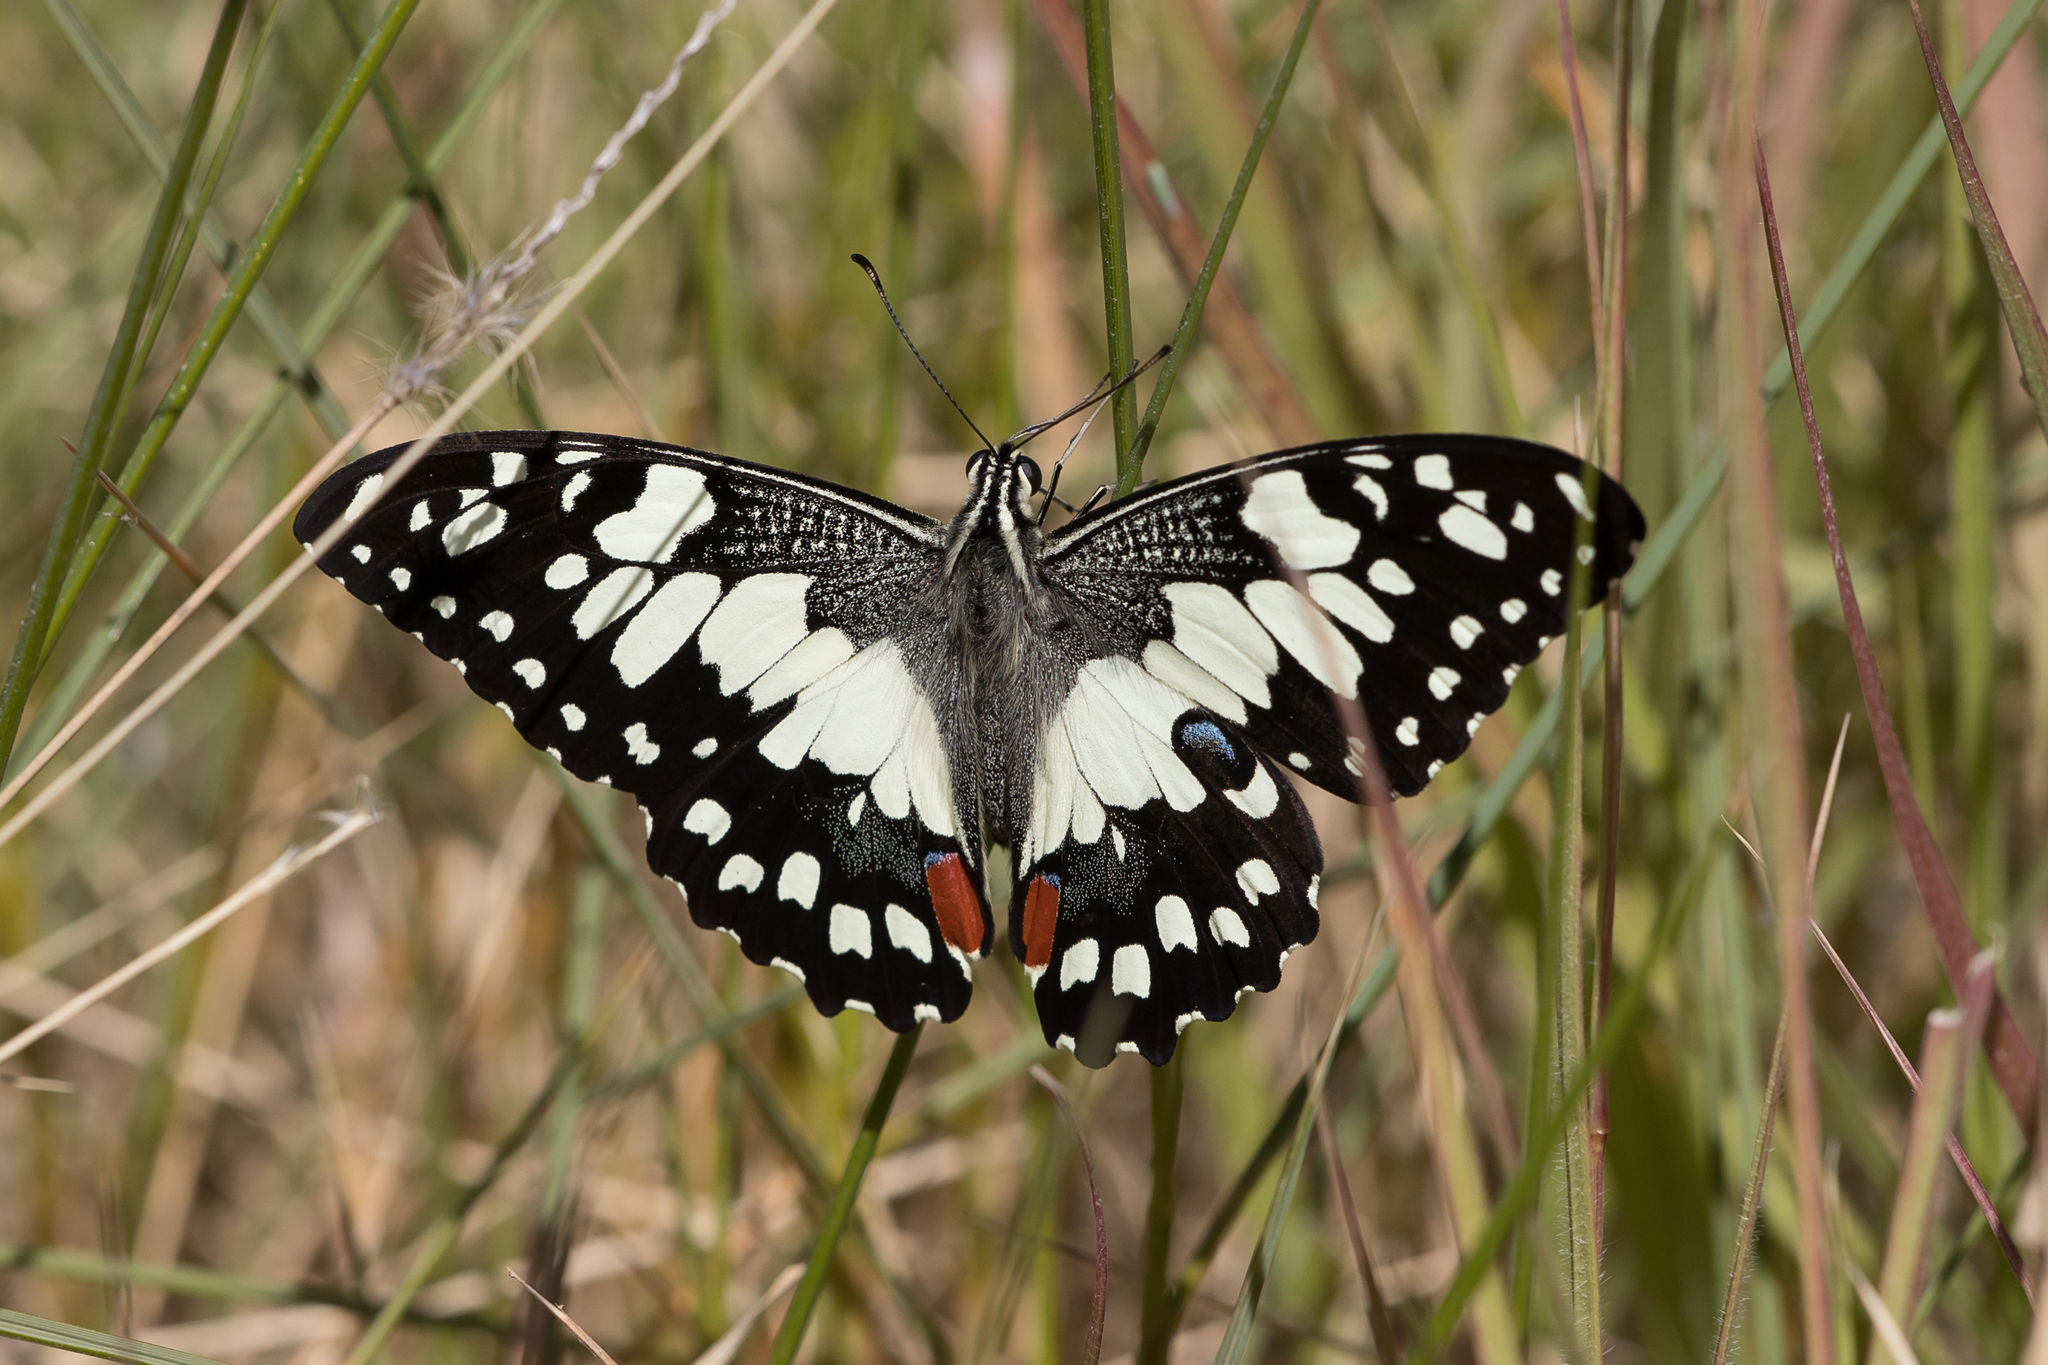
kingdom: Animalia
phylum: Arthropoda
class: Insecta
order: Lepidoptera
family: Papilionidae
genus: Papilio
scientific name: Papilio demoleus
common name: Lime butterfly
